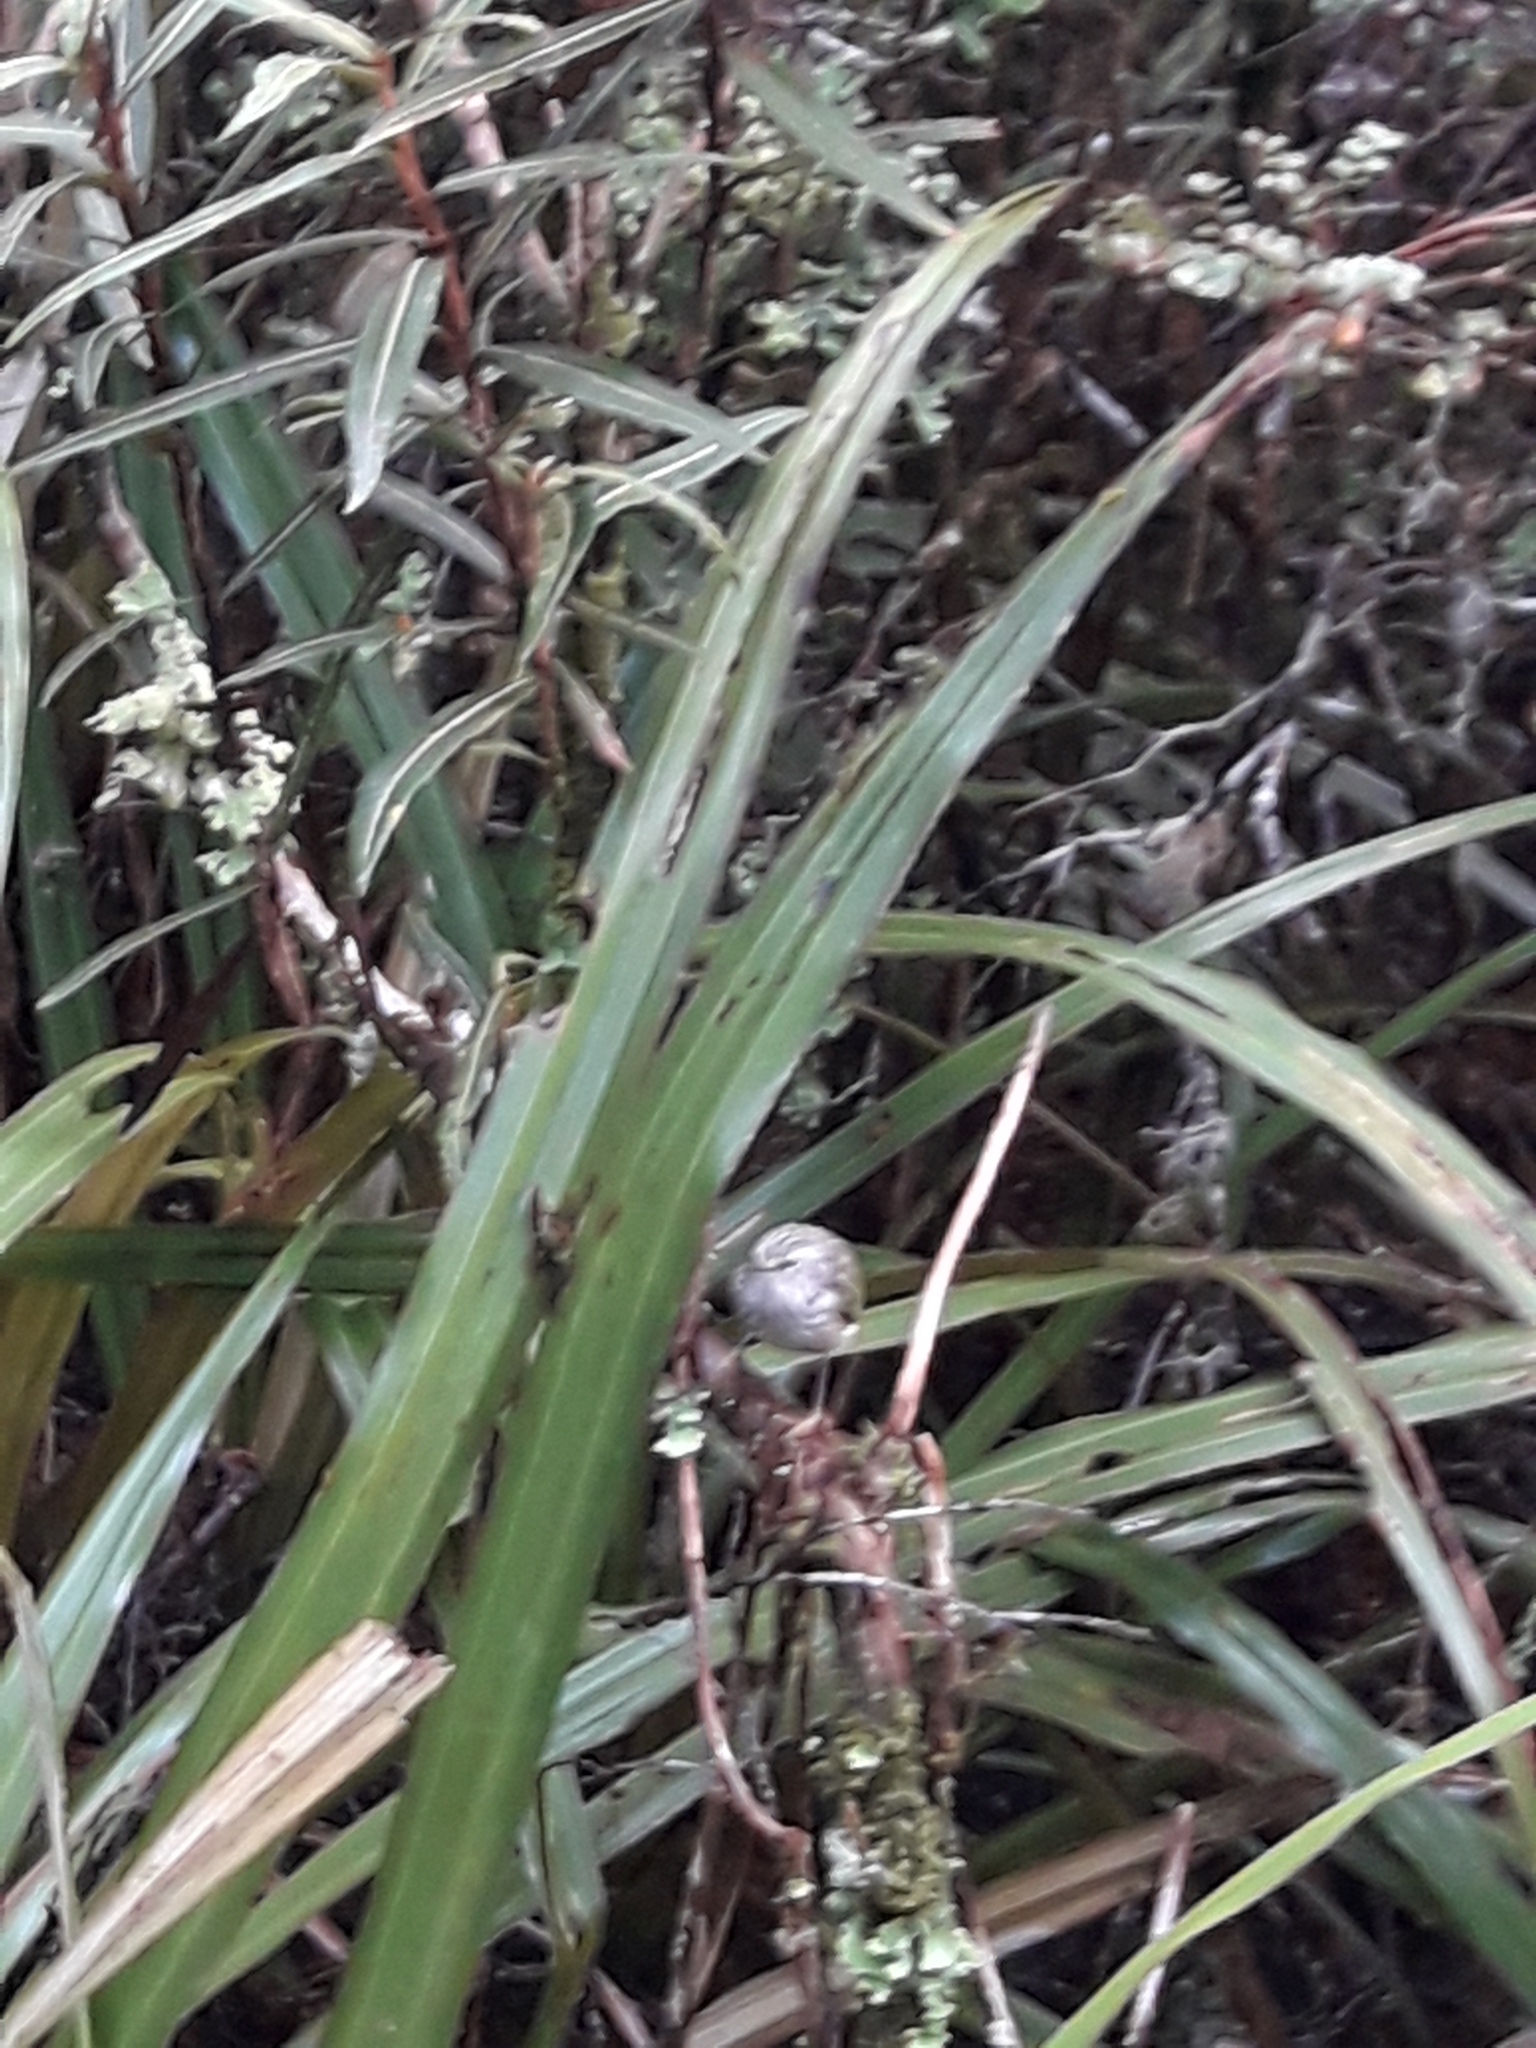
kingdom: Animalia
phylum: Chordata
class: Aves
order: Passeriformes
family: Acanthisittidae
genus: Acanthisitta
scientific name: Acanthisitta chloris
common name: Rifleman
